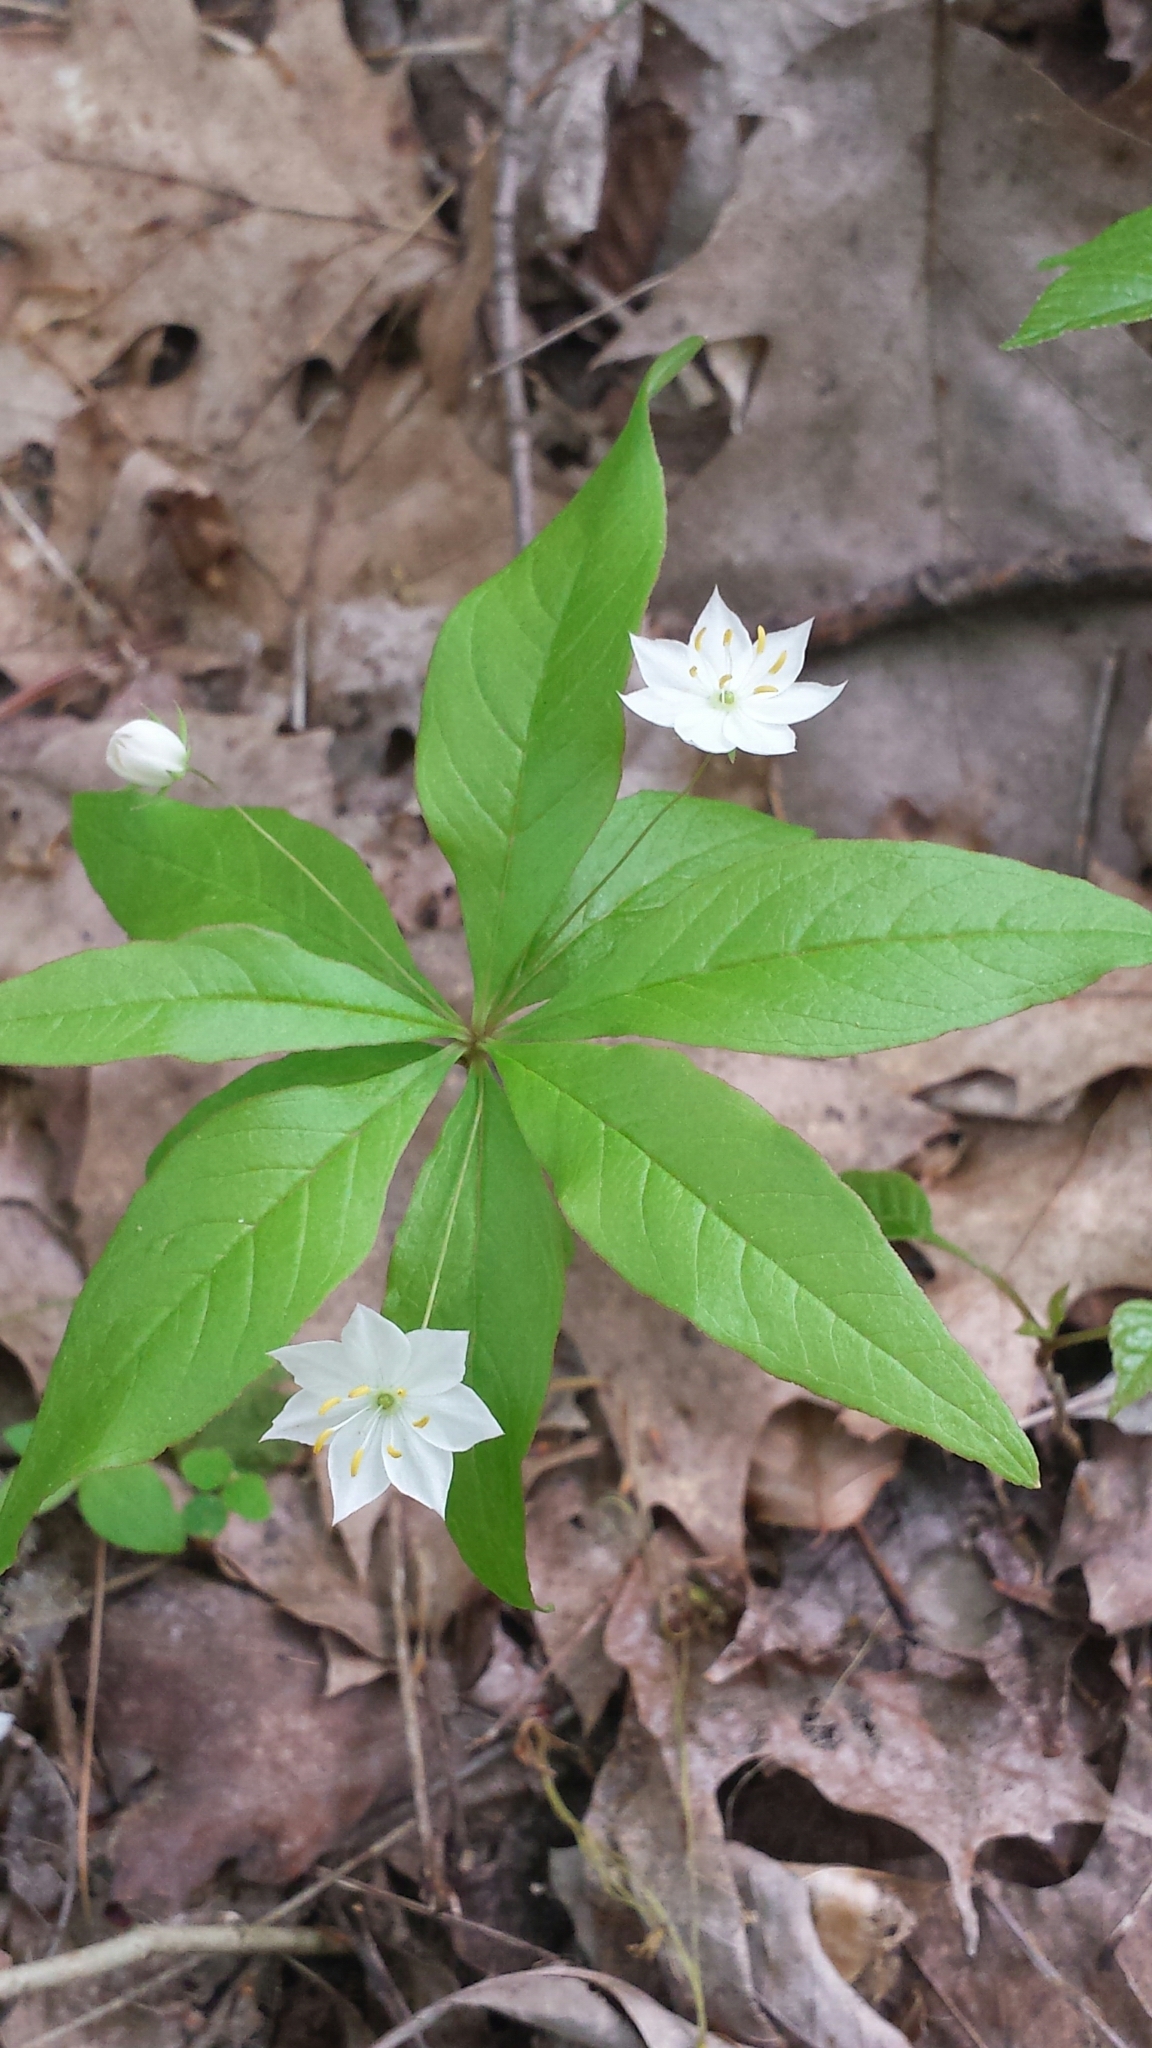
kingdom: Plantae
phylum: Tracheophyta
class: Magnoliopsida
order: Ericales
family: Primulaceae
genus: Lysimachia
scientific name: Lysimachia borealis
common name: American starflower
